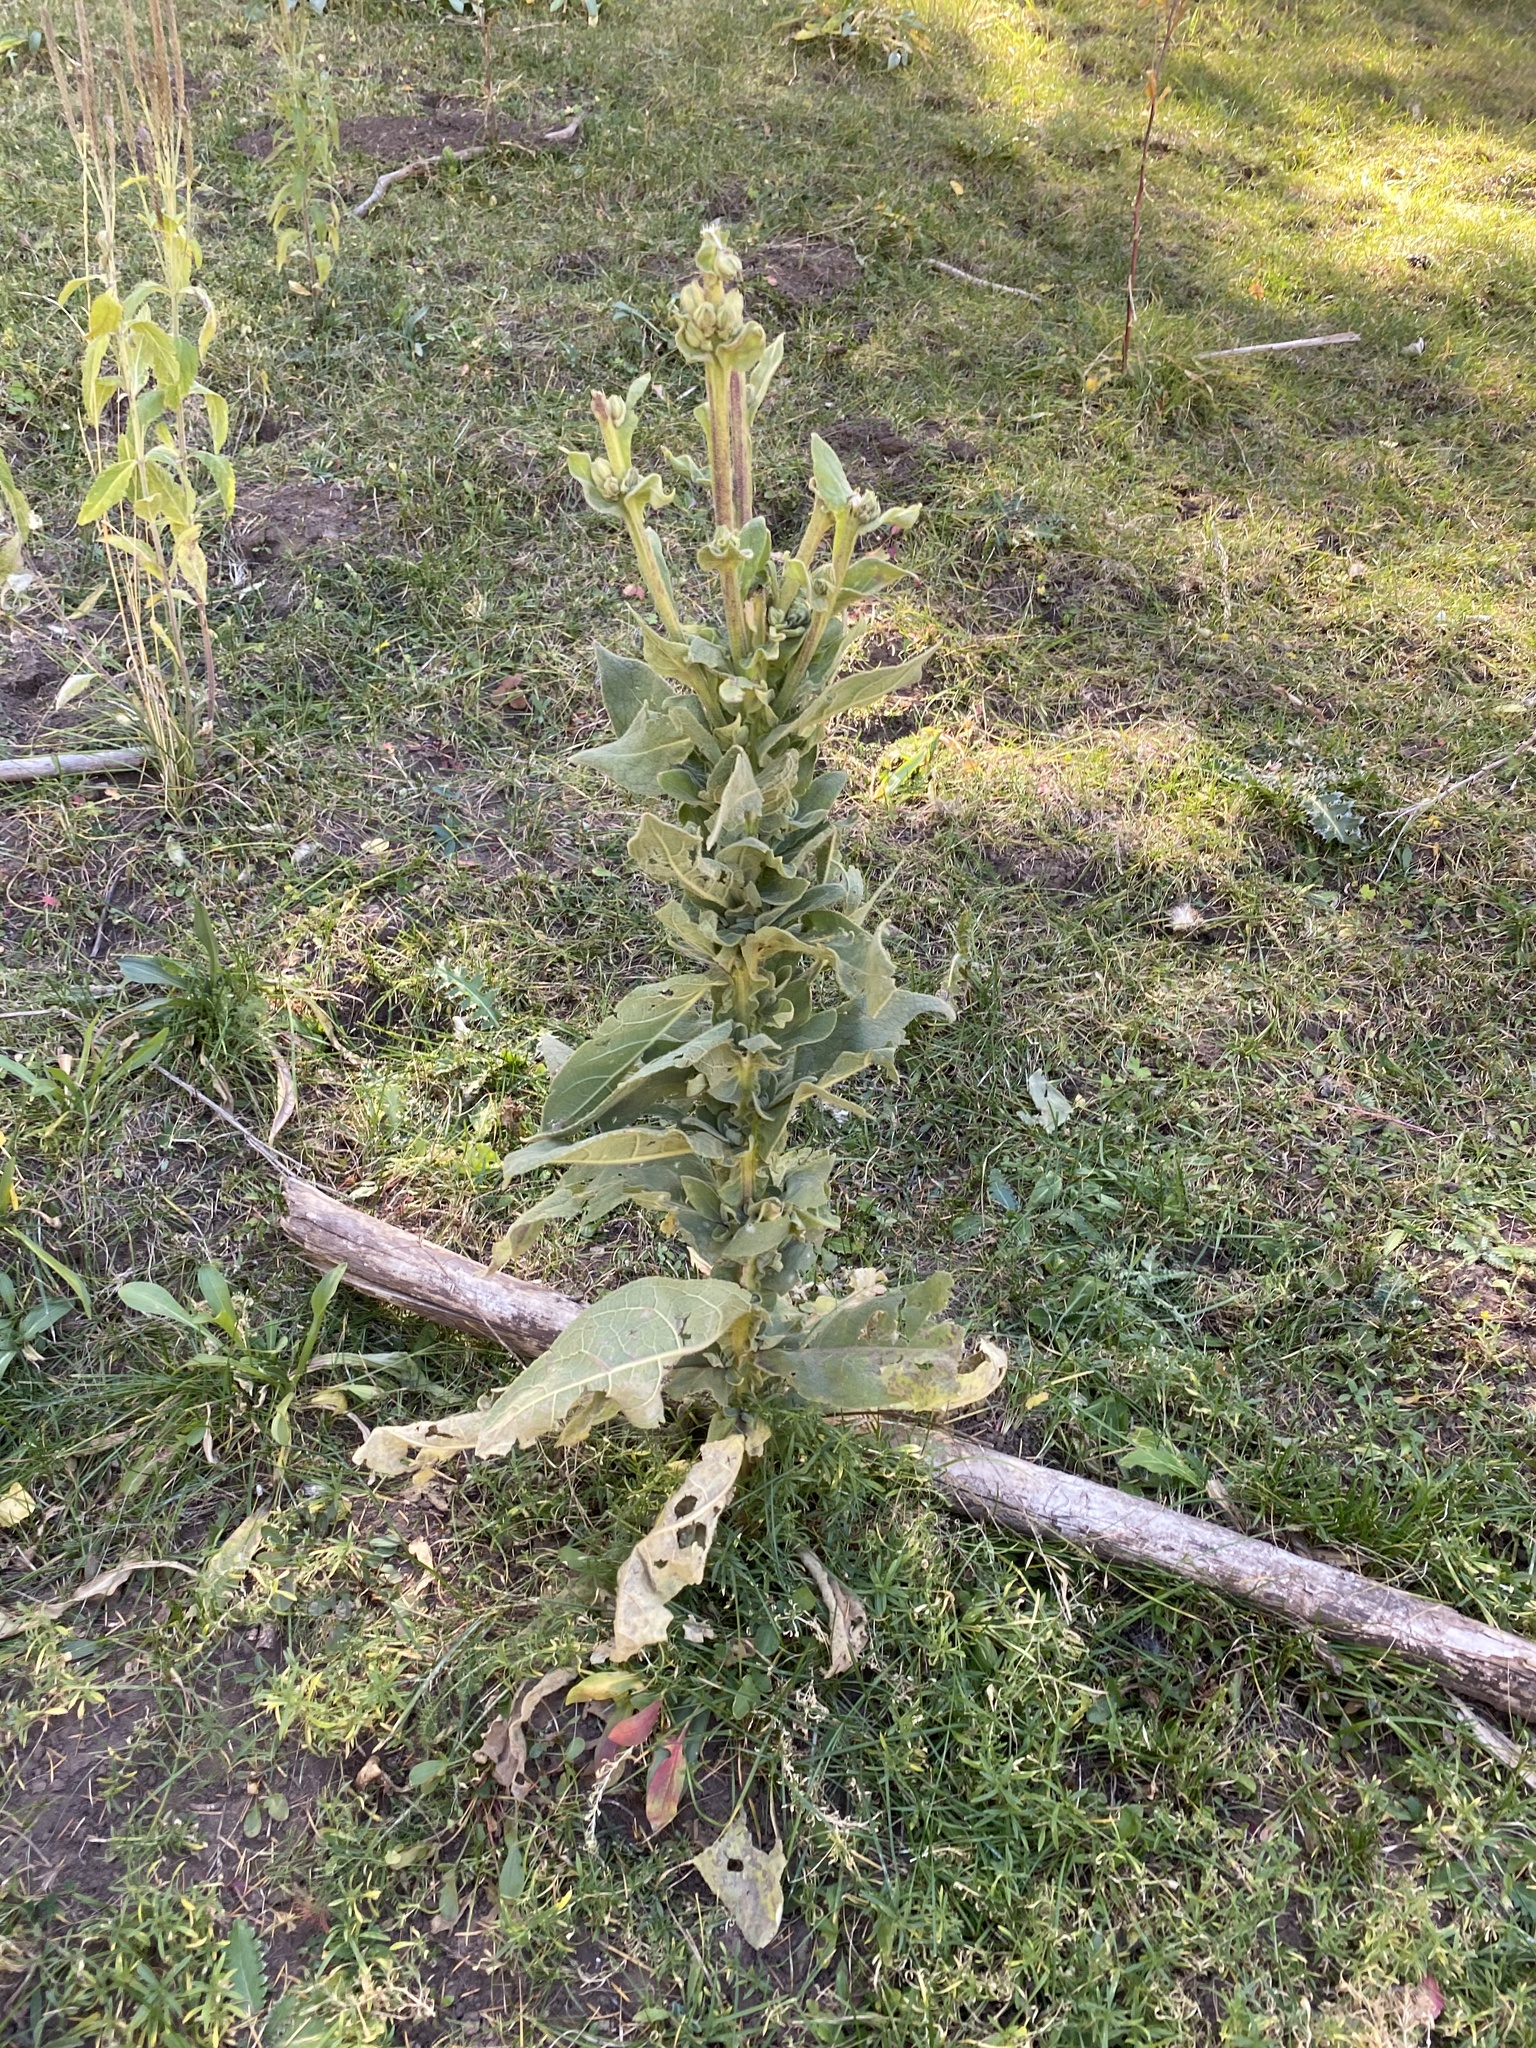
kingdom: Plantae
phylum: Tracheophyta
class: Magnoliopsida
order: Lamiales
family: Scrophulariaceae
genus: Verbascum
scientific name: Verbascum thapsus
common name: Common mullein
